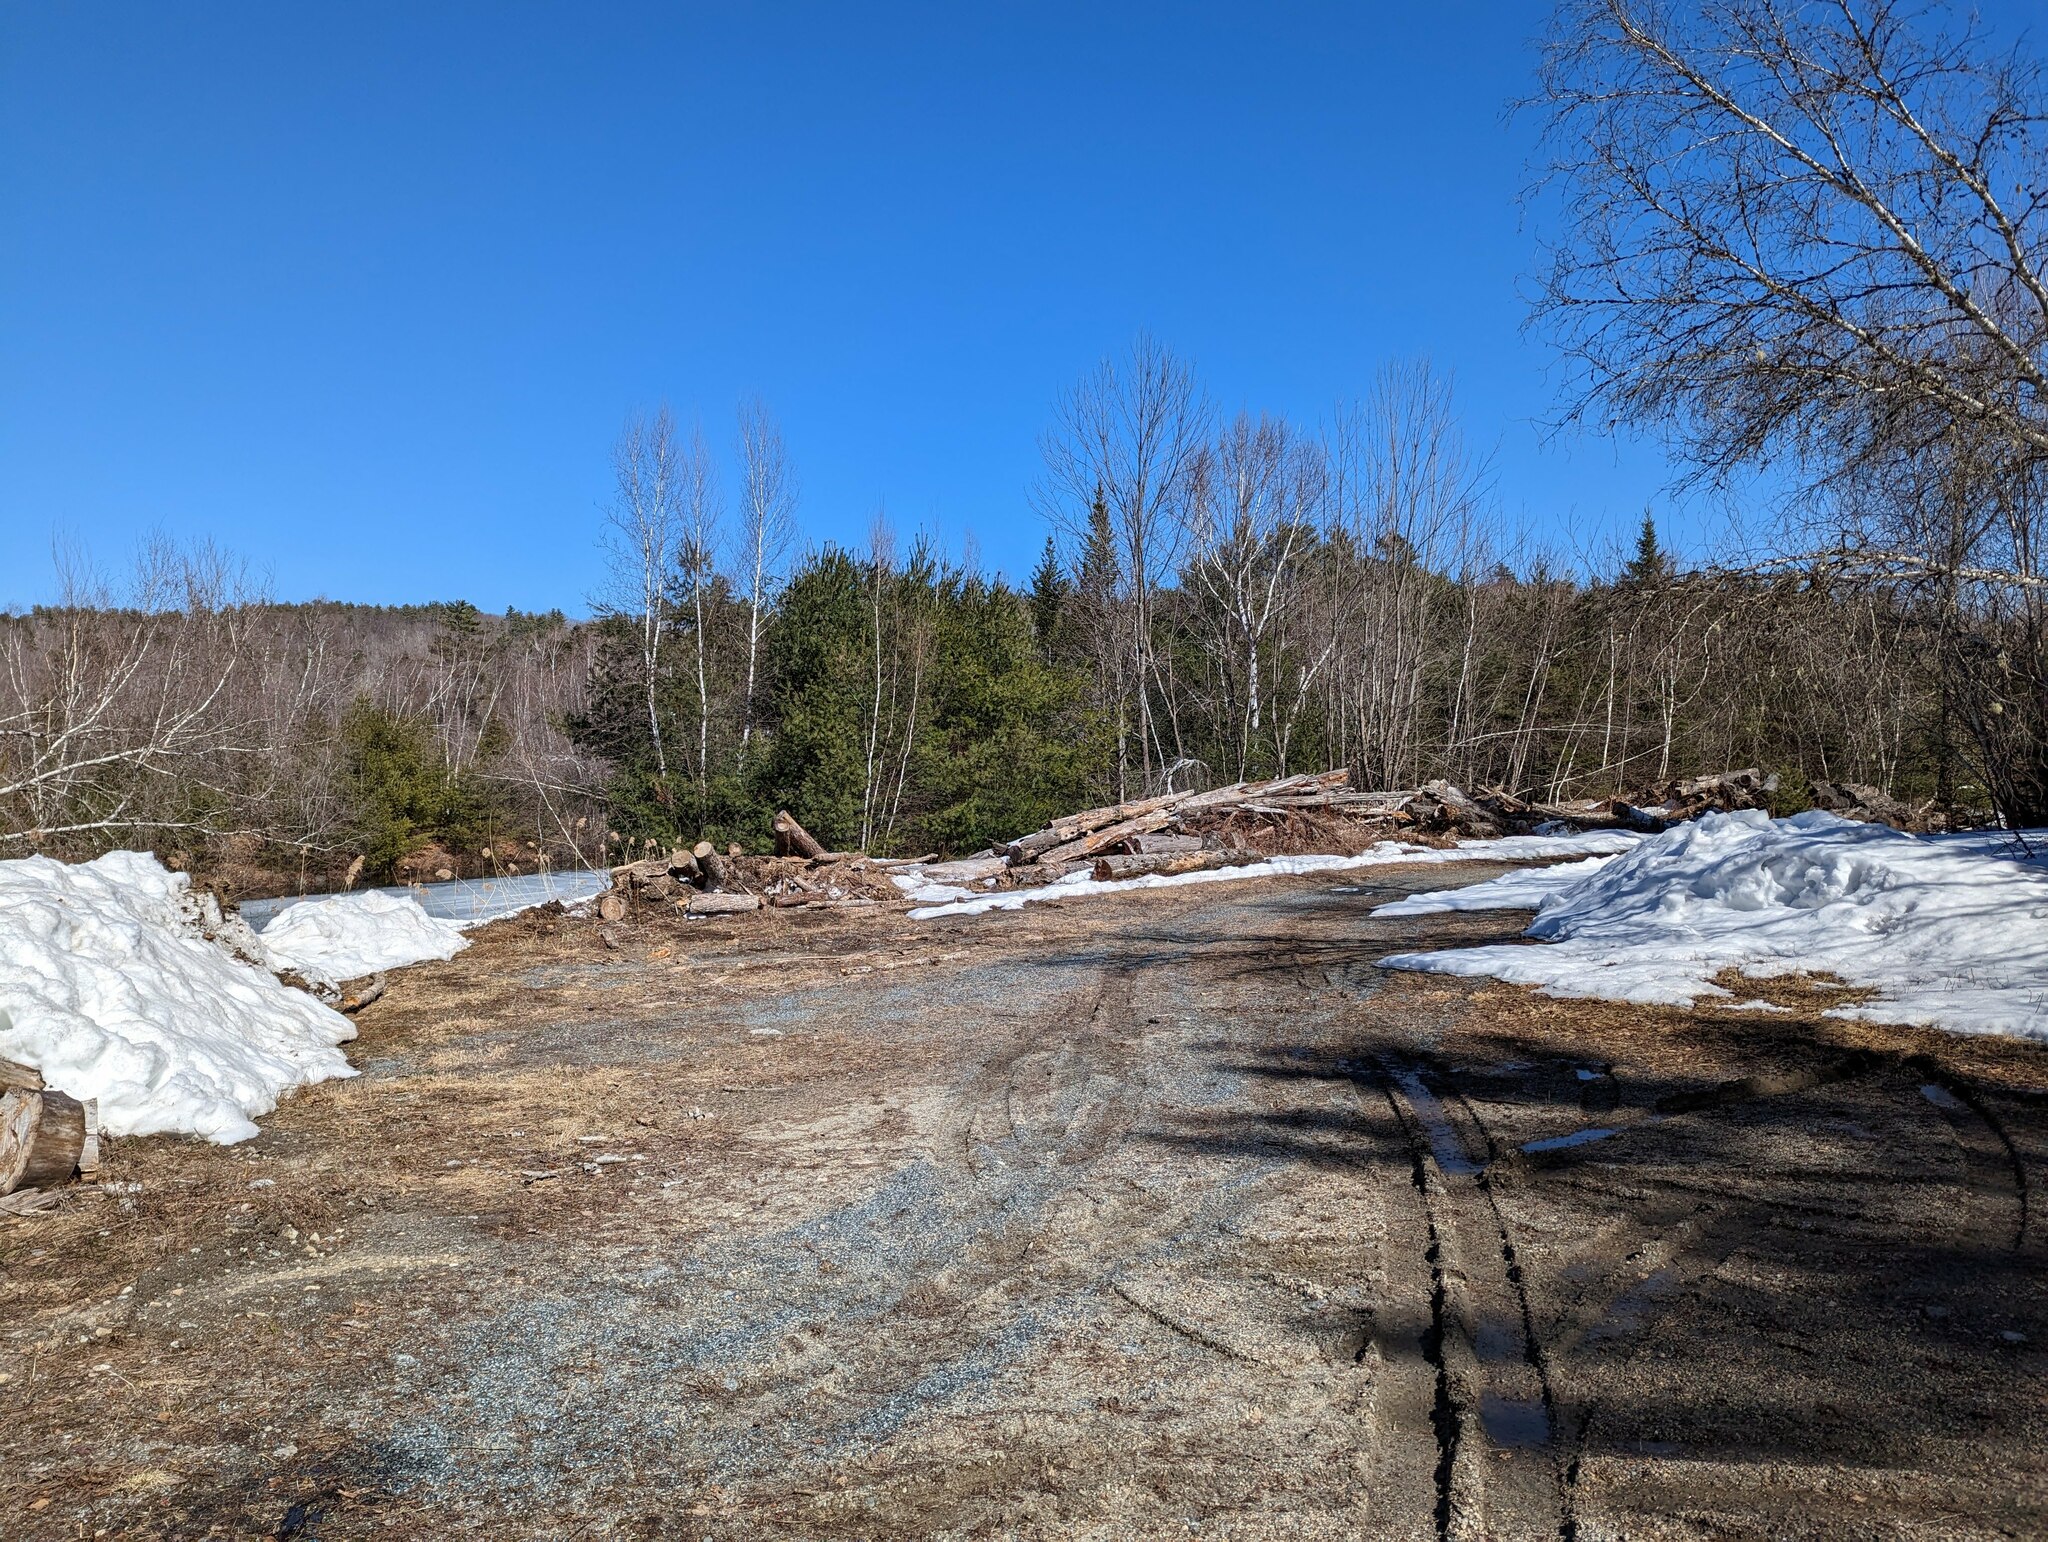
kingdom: Plantae
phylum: Tracheophyta
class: Pinopsida
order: Pinales
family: Pinaceae
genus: Pinus
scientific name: Pinus strobus
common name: Weymouth pine
